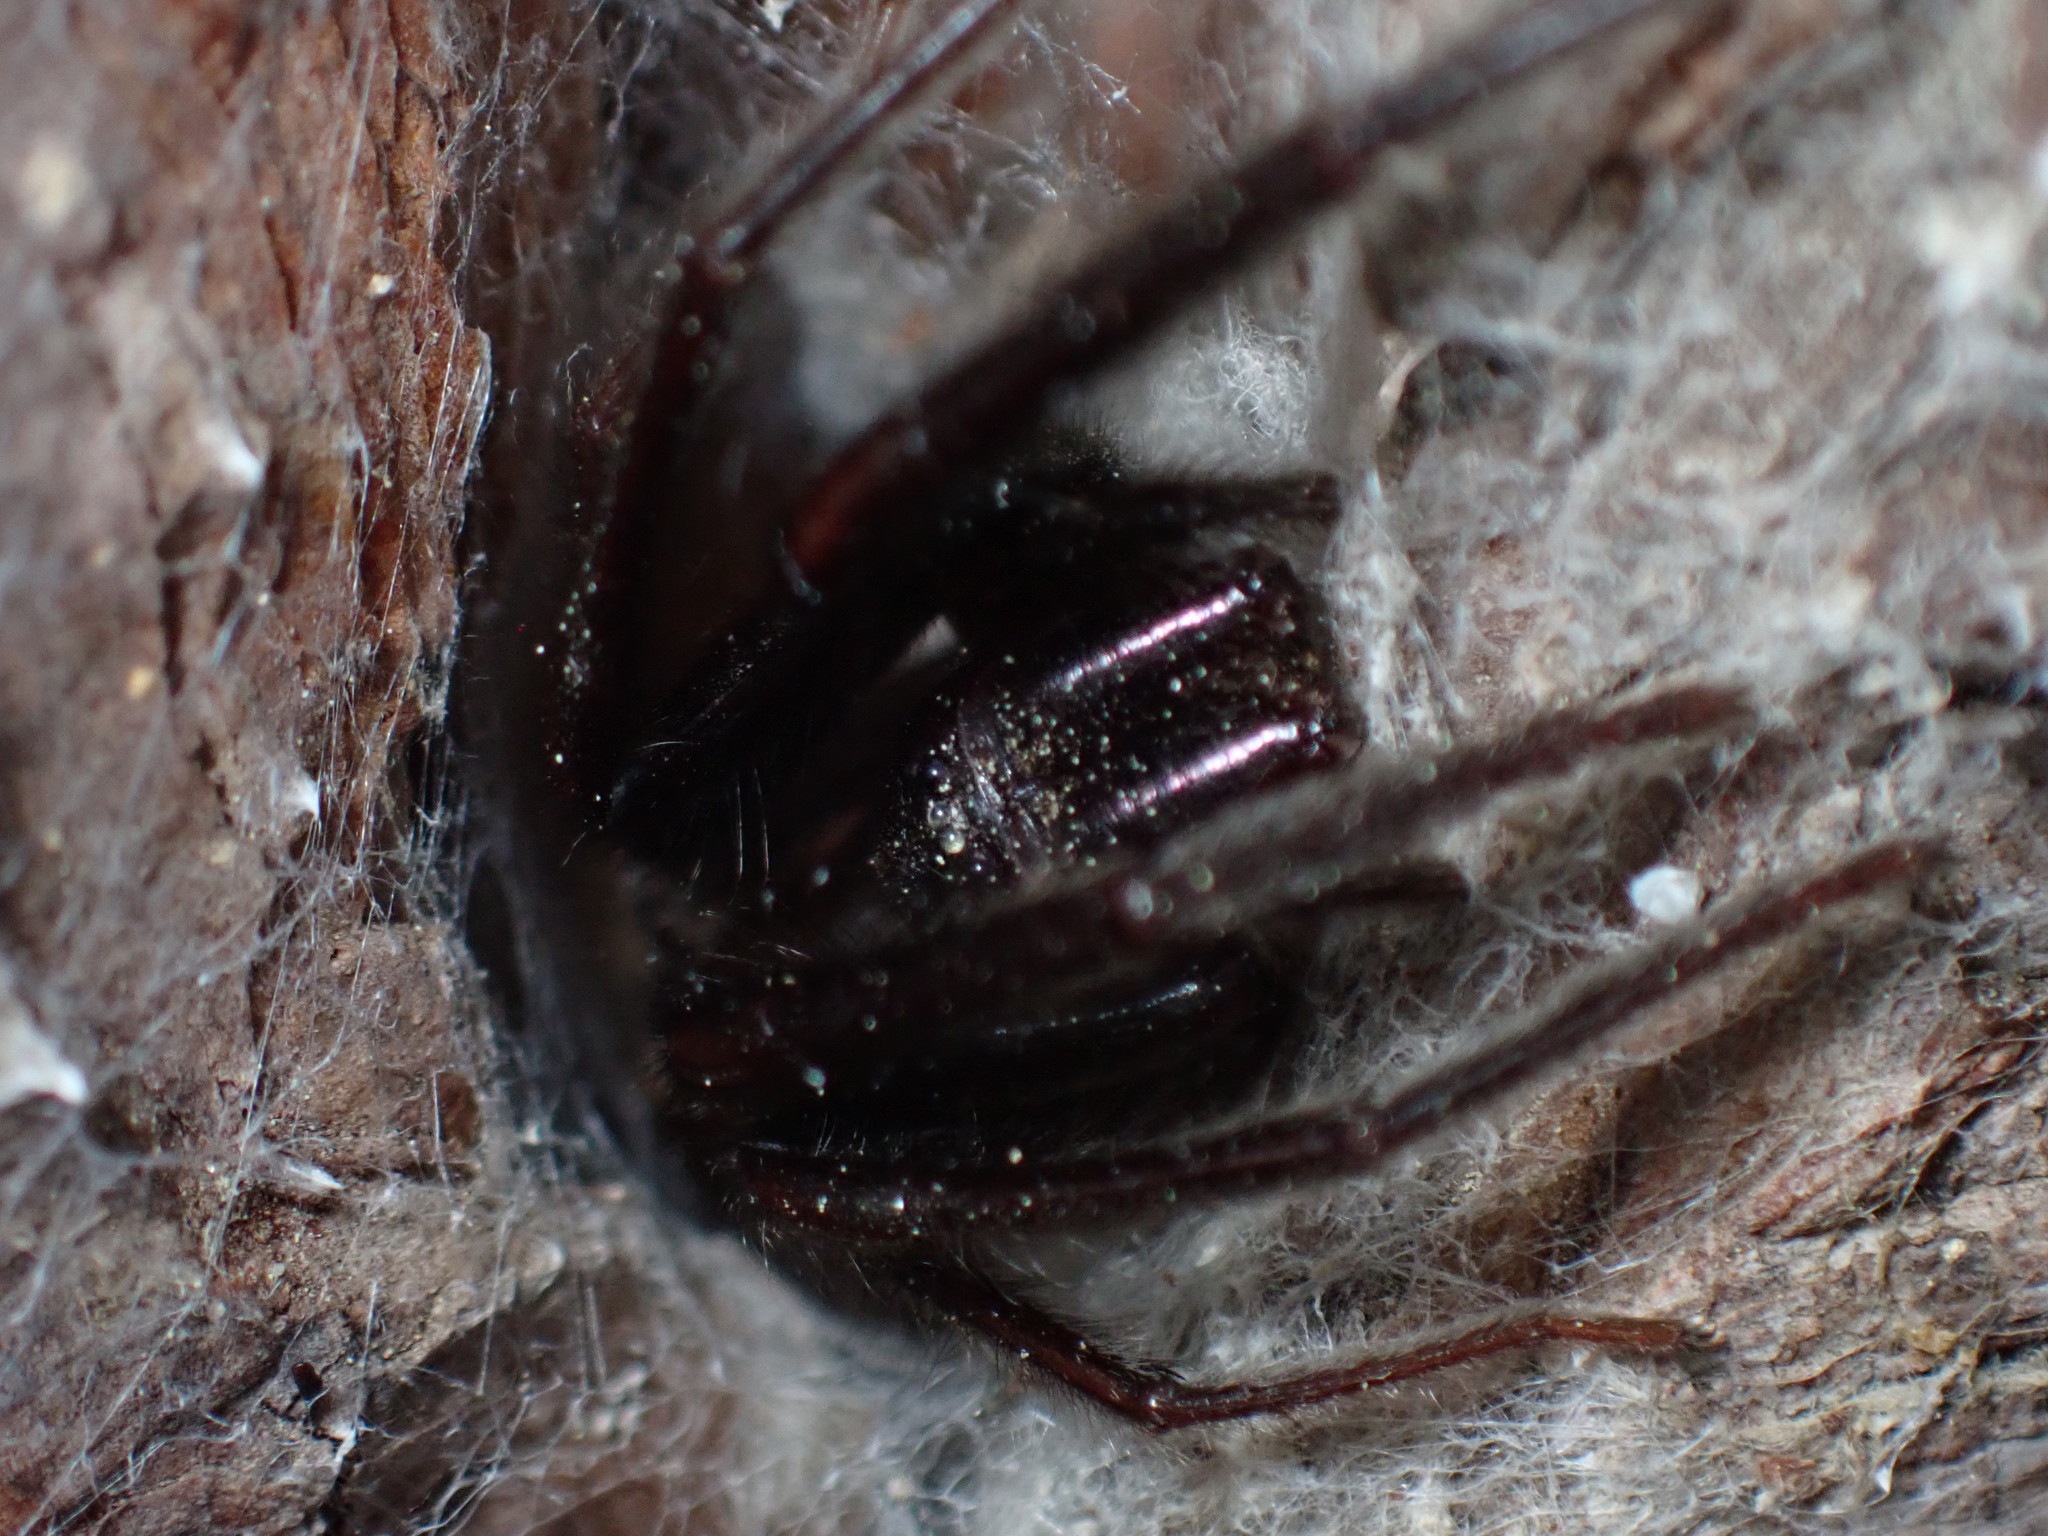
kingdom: Animalia
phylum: Arthropoda
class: Arachnida
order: Araneae
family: Segestriidae
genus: Segestria
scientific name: Segestria florentina
